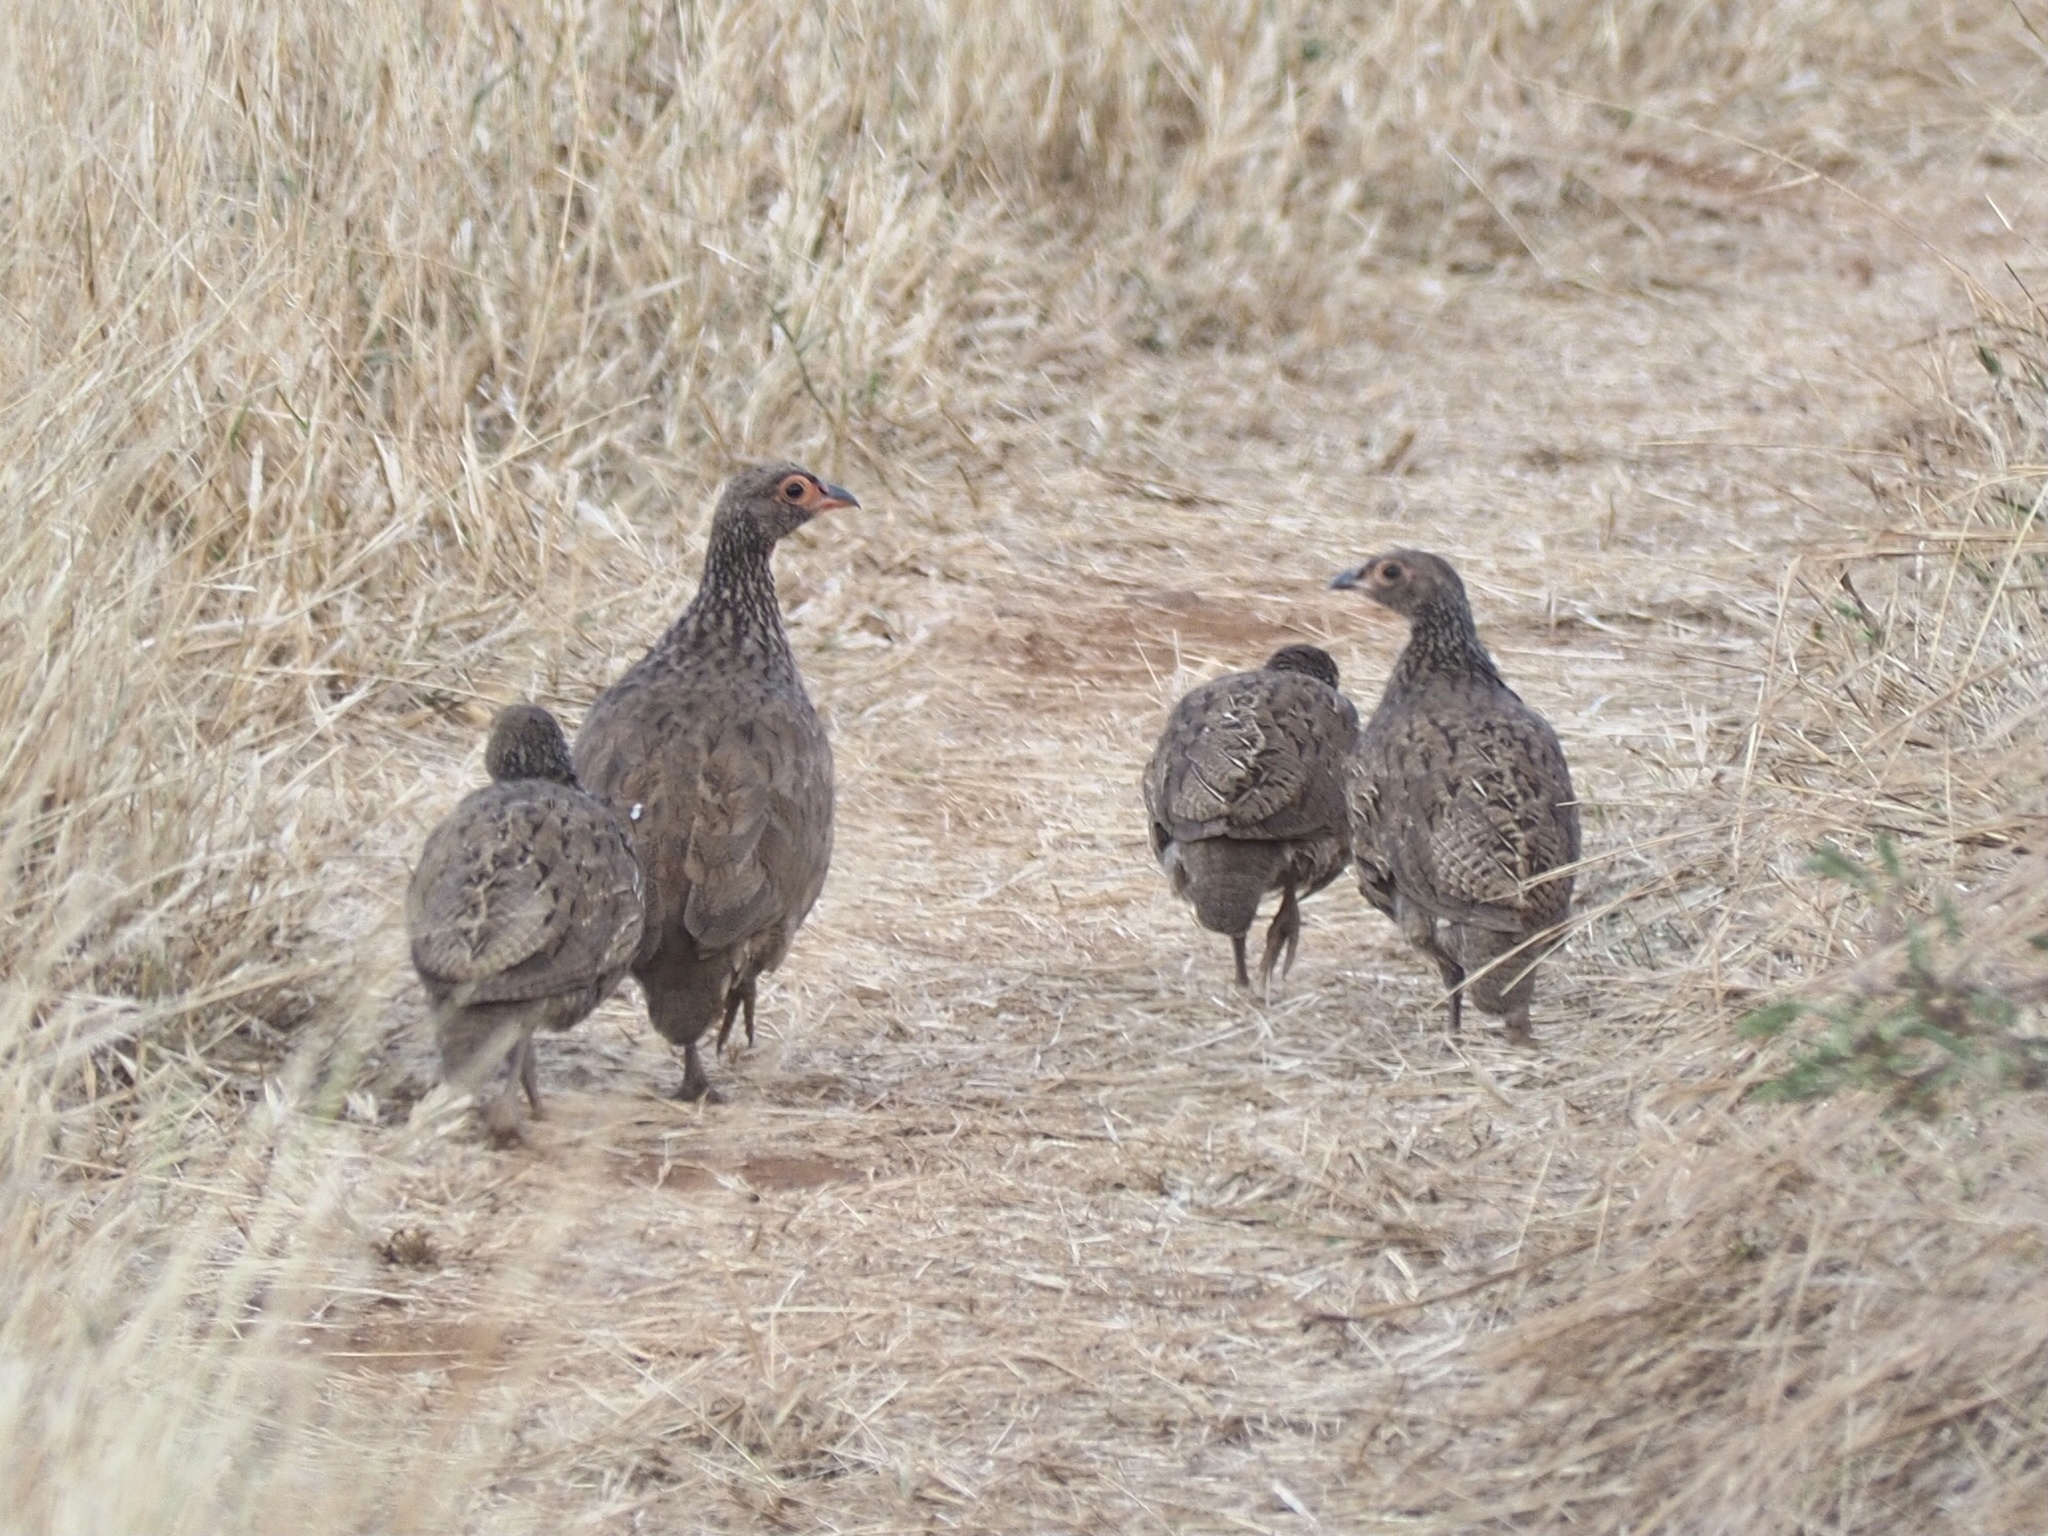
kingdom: Animalia
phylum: Chordata
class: Aves
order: Galliformes
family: Phasianidae
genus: Pternistis
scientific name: Pternistis swainsonii
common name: Swainson's spurfowl
